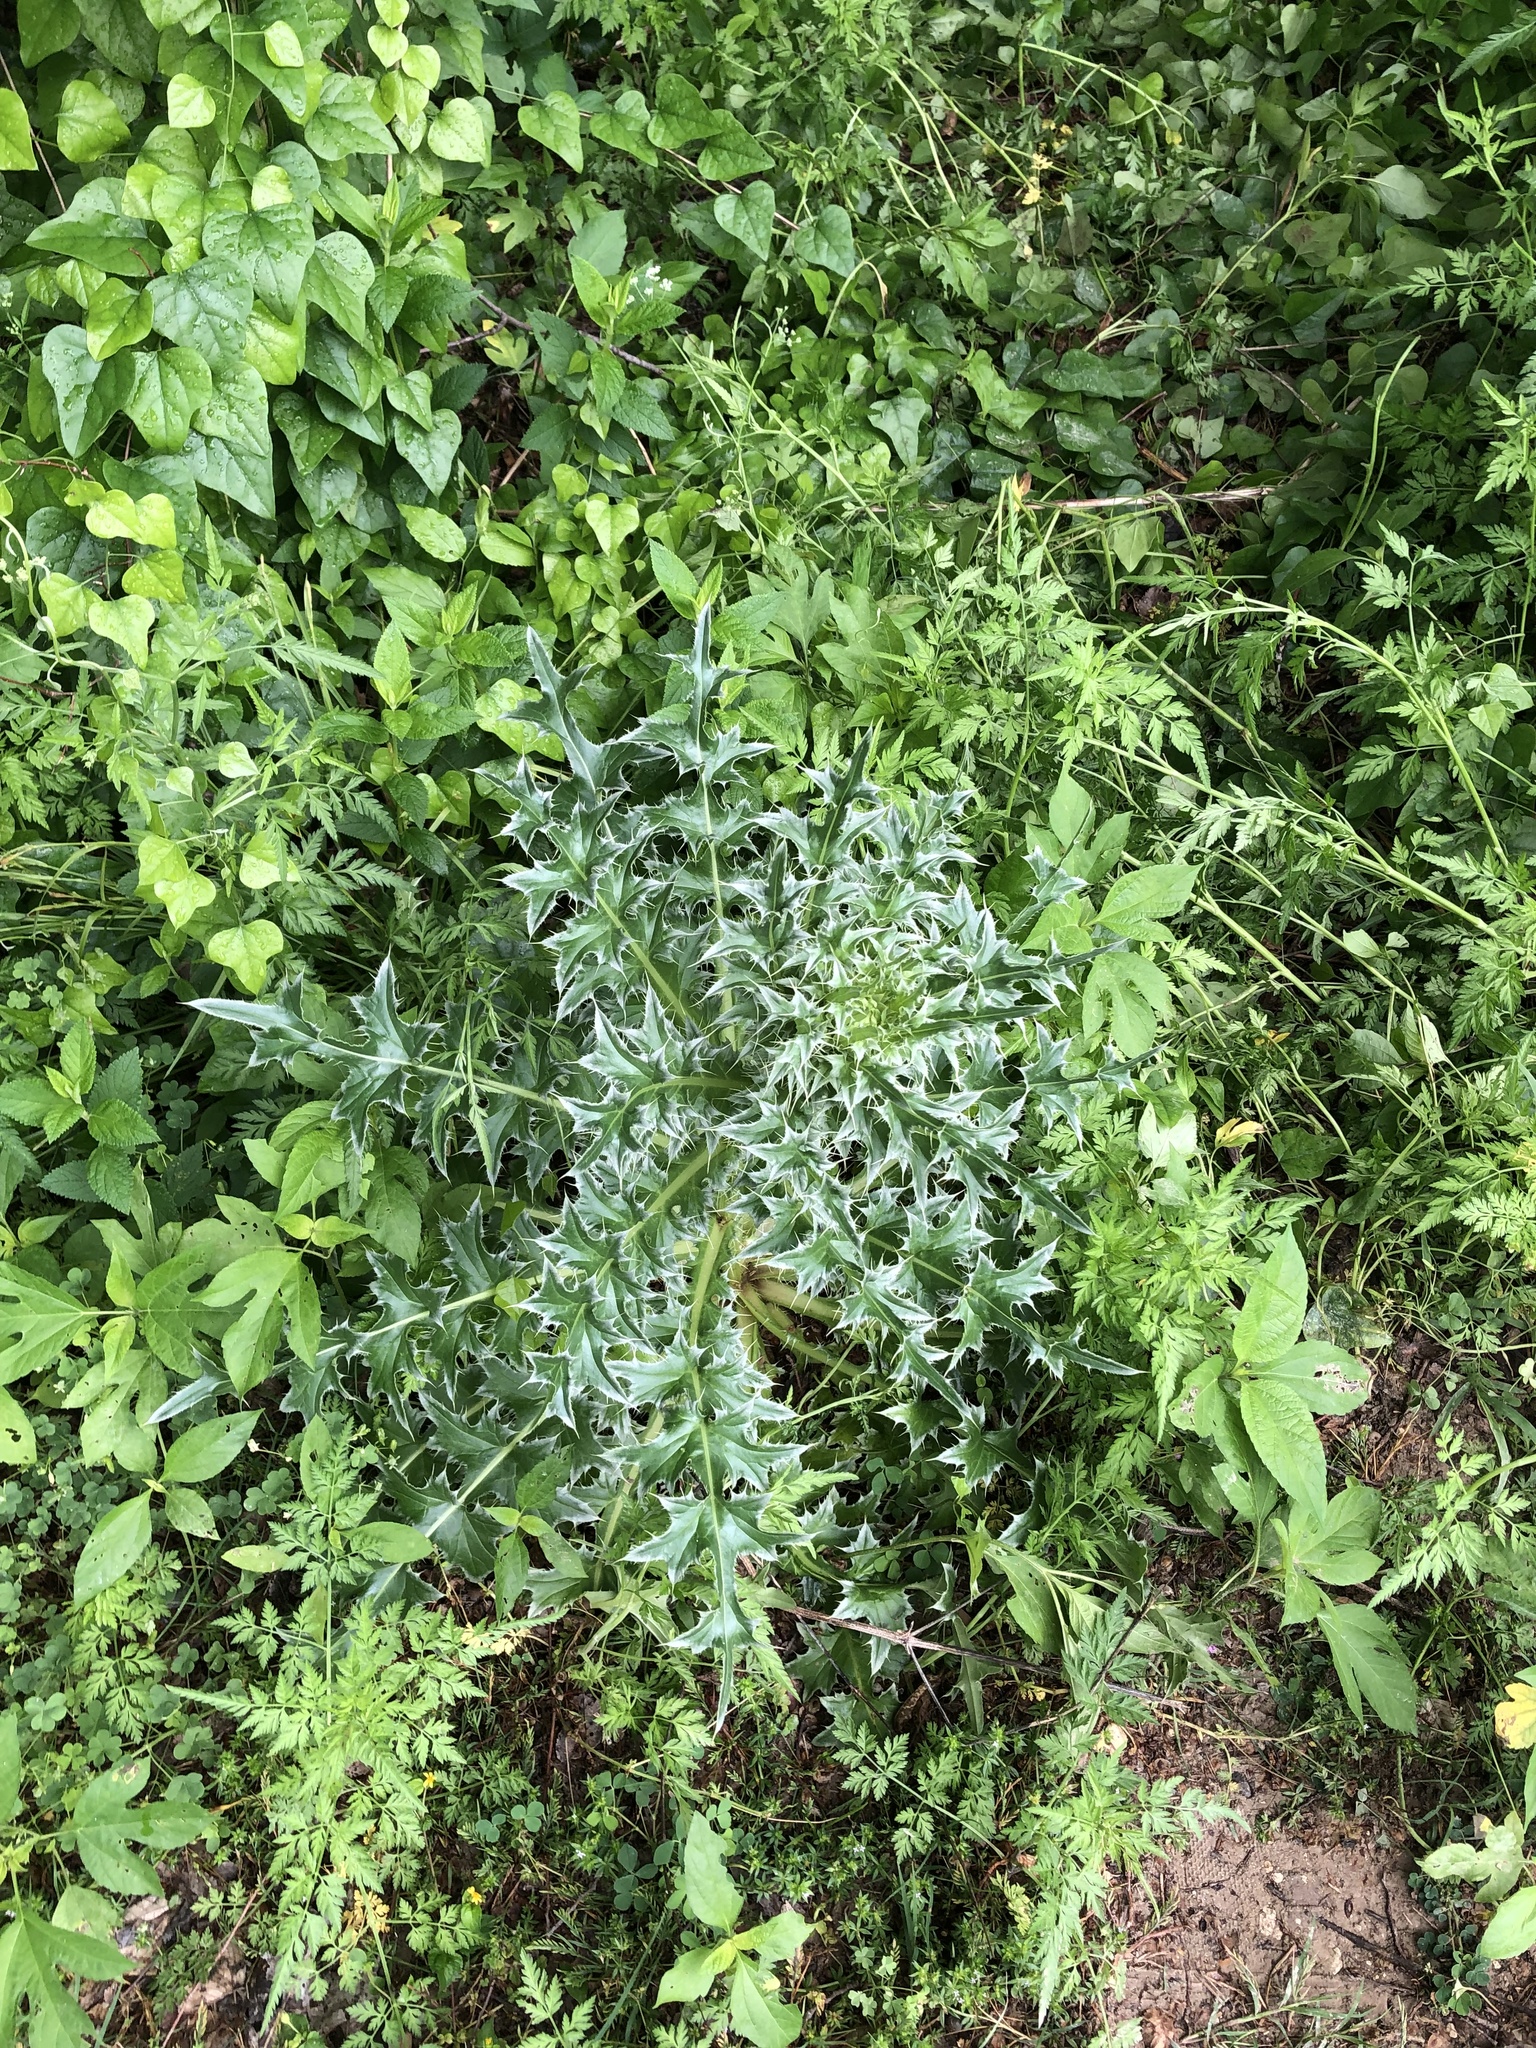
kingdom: Plantae
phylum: Tracheophyta
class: Magnoliopsida
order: Asterales
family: Asteraceae
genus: Carduus
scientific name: Carduus nutans
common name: Musk thistle
